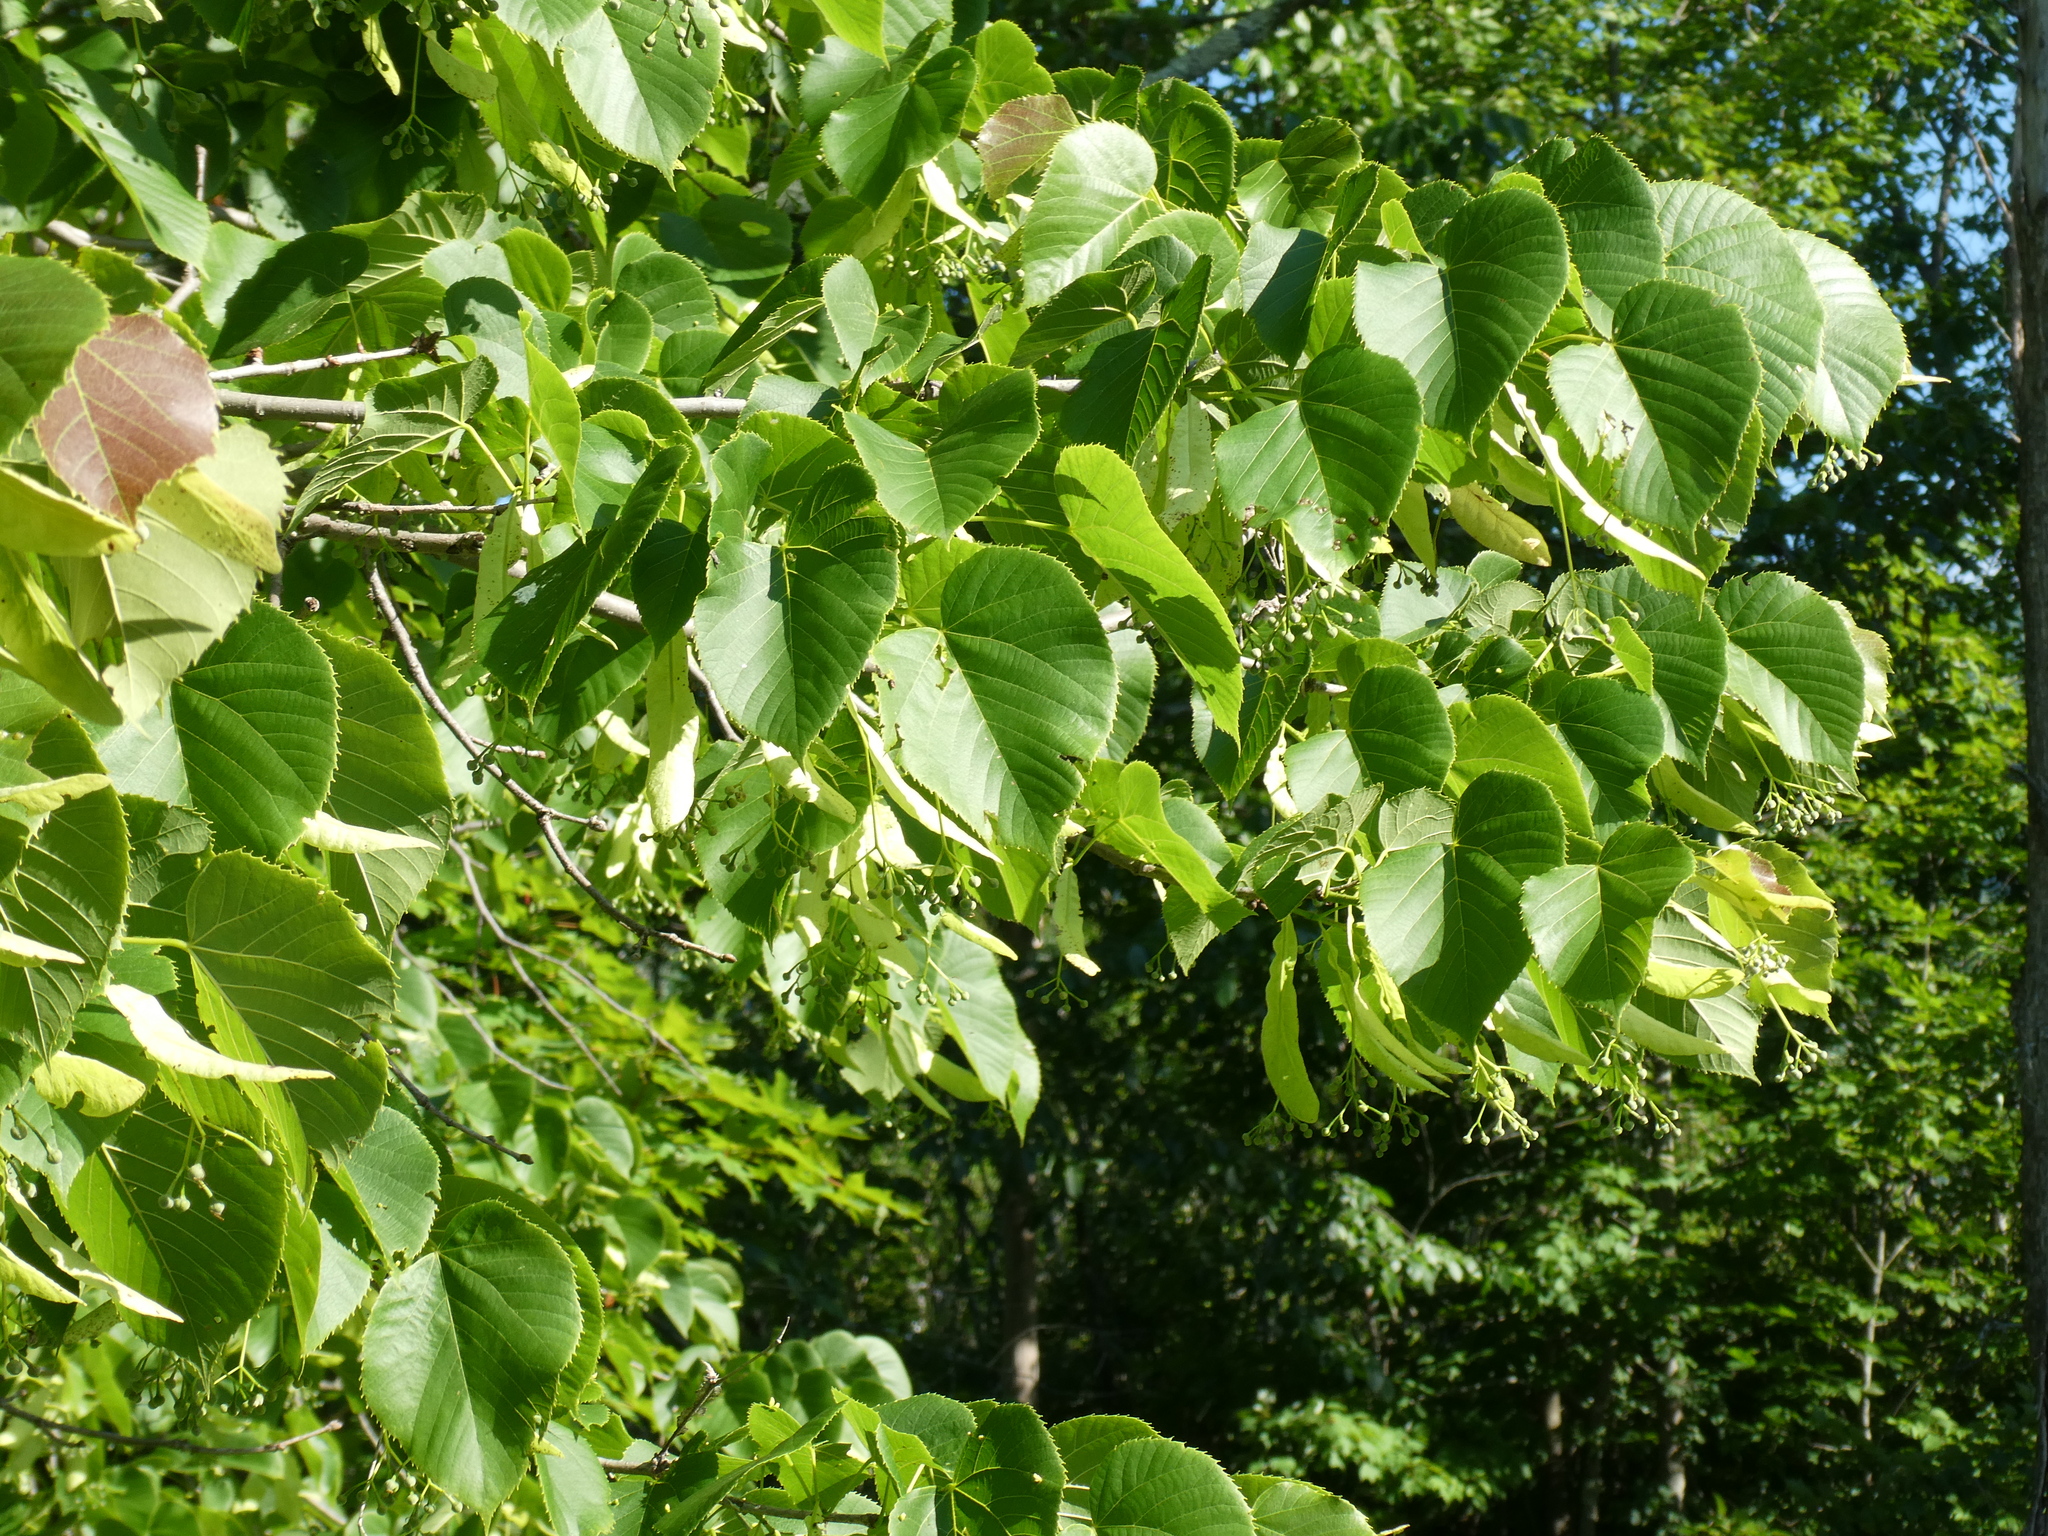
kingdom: Plantae
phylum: Tracheophyta
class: Magnoliopsida
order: Malvales
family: Malvaceae
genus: Tilia
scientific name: Tilia americana
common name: Basswood
